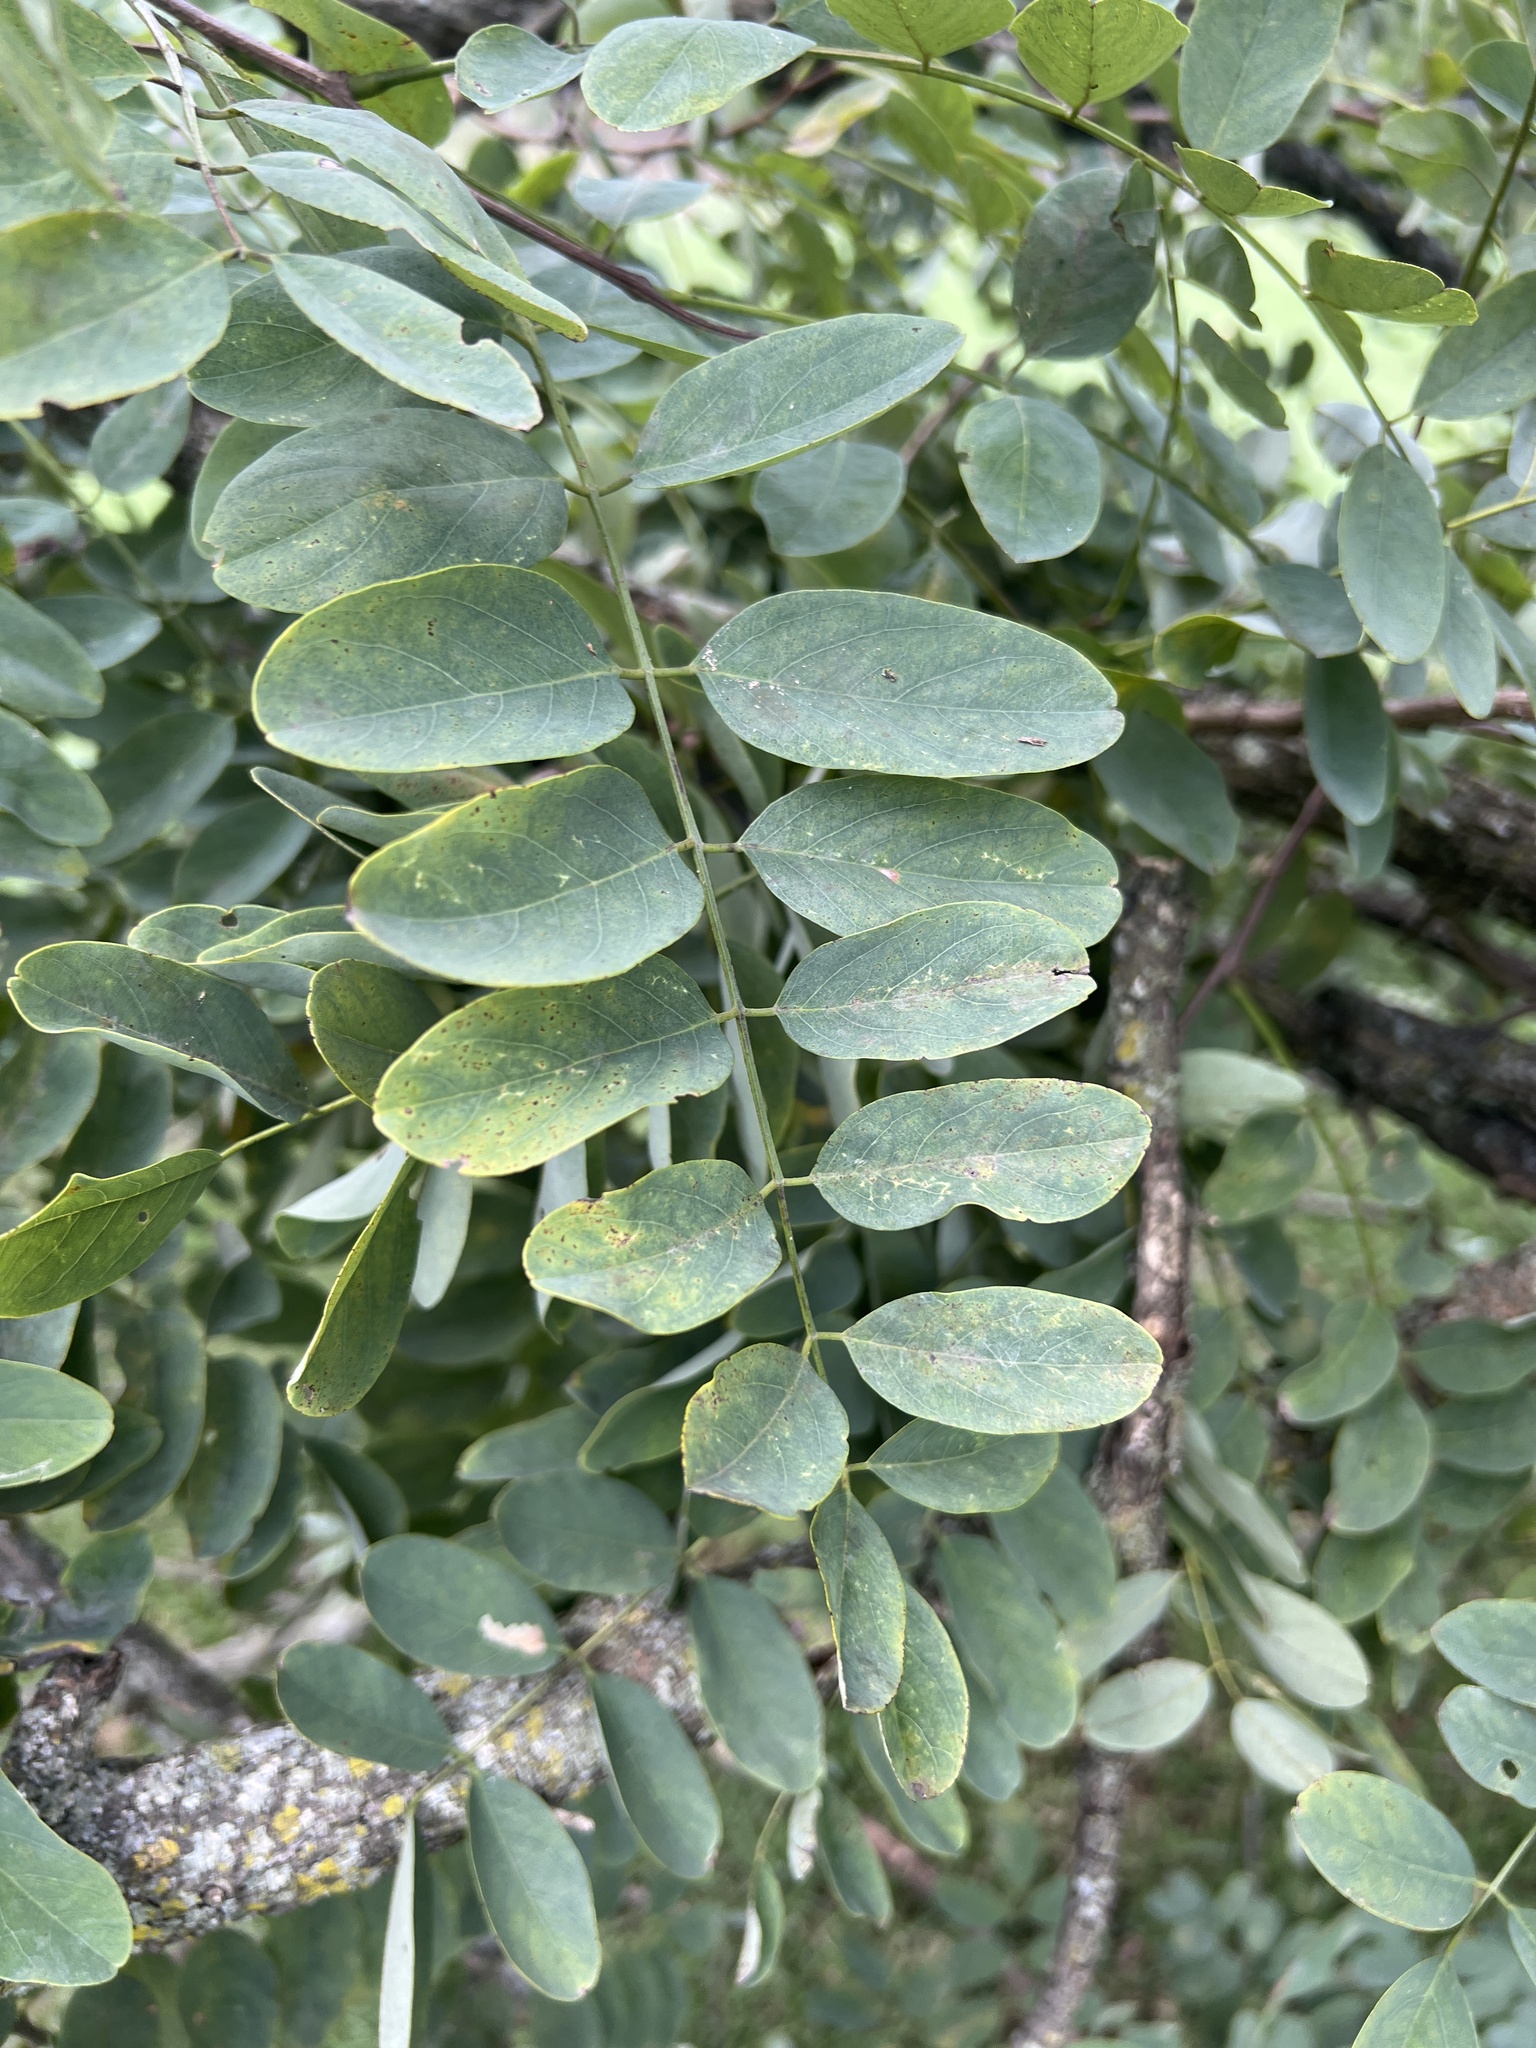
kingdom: Plantae
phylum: Tracheophyta
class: Magnoliopsida
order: Fabales
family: Fabaceae
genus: Robinia
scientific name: Robinia pseudoacacia
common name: Black locust
